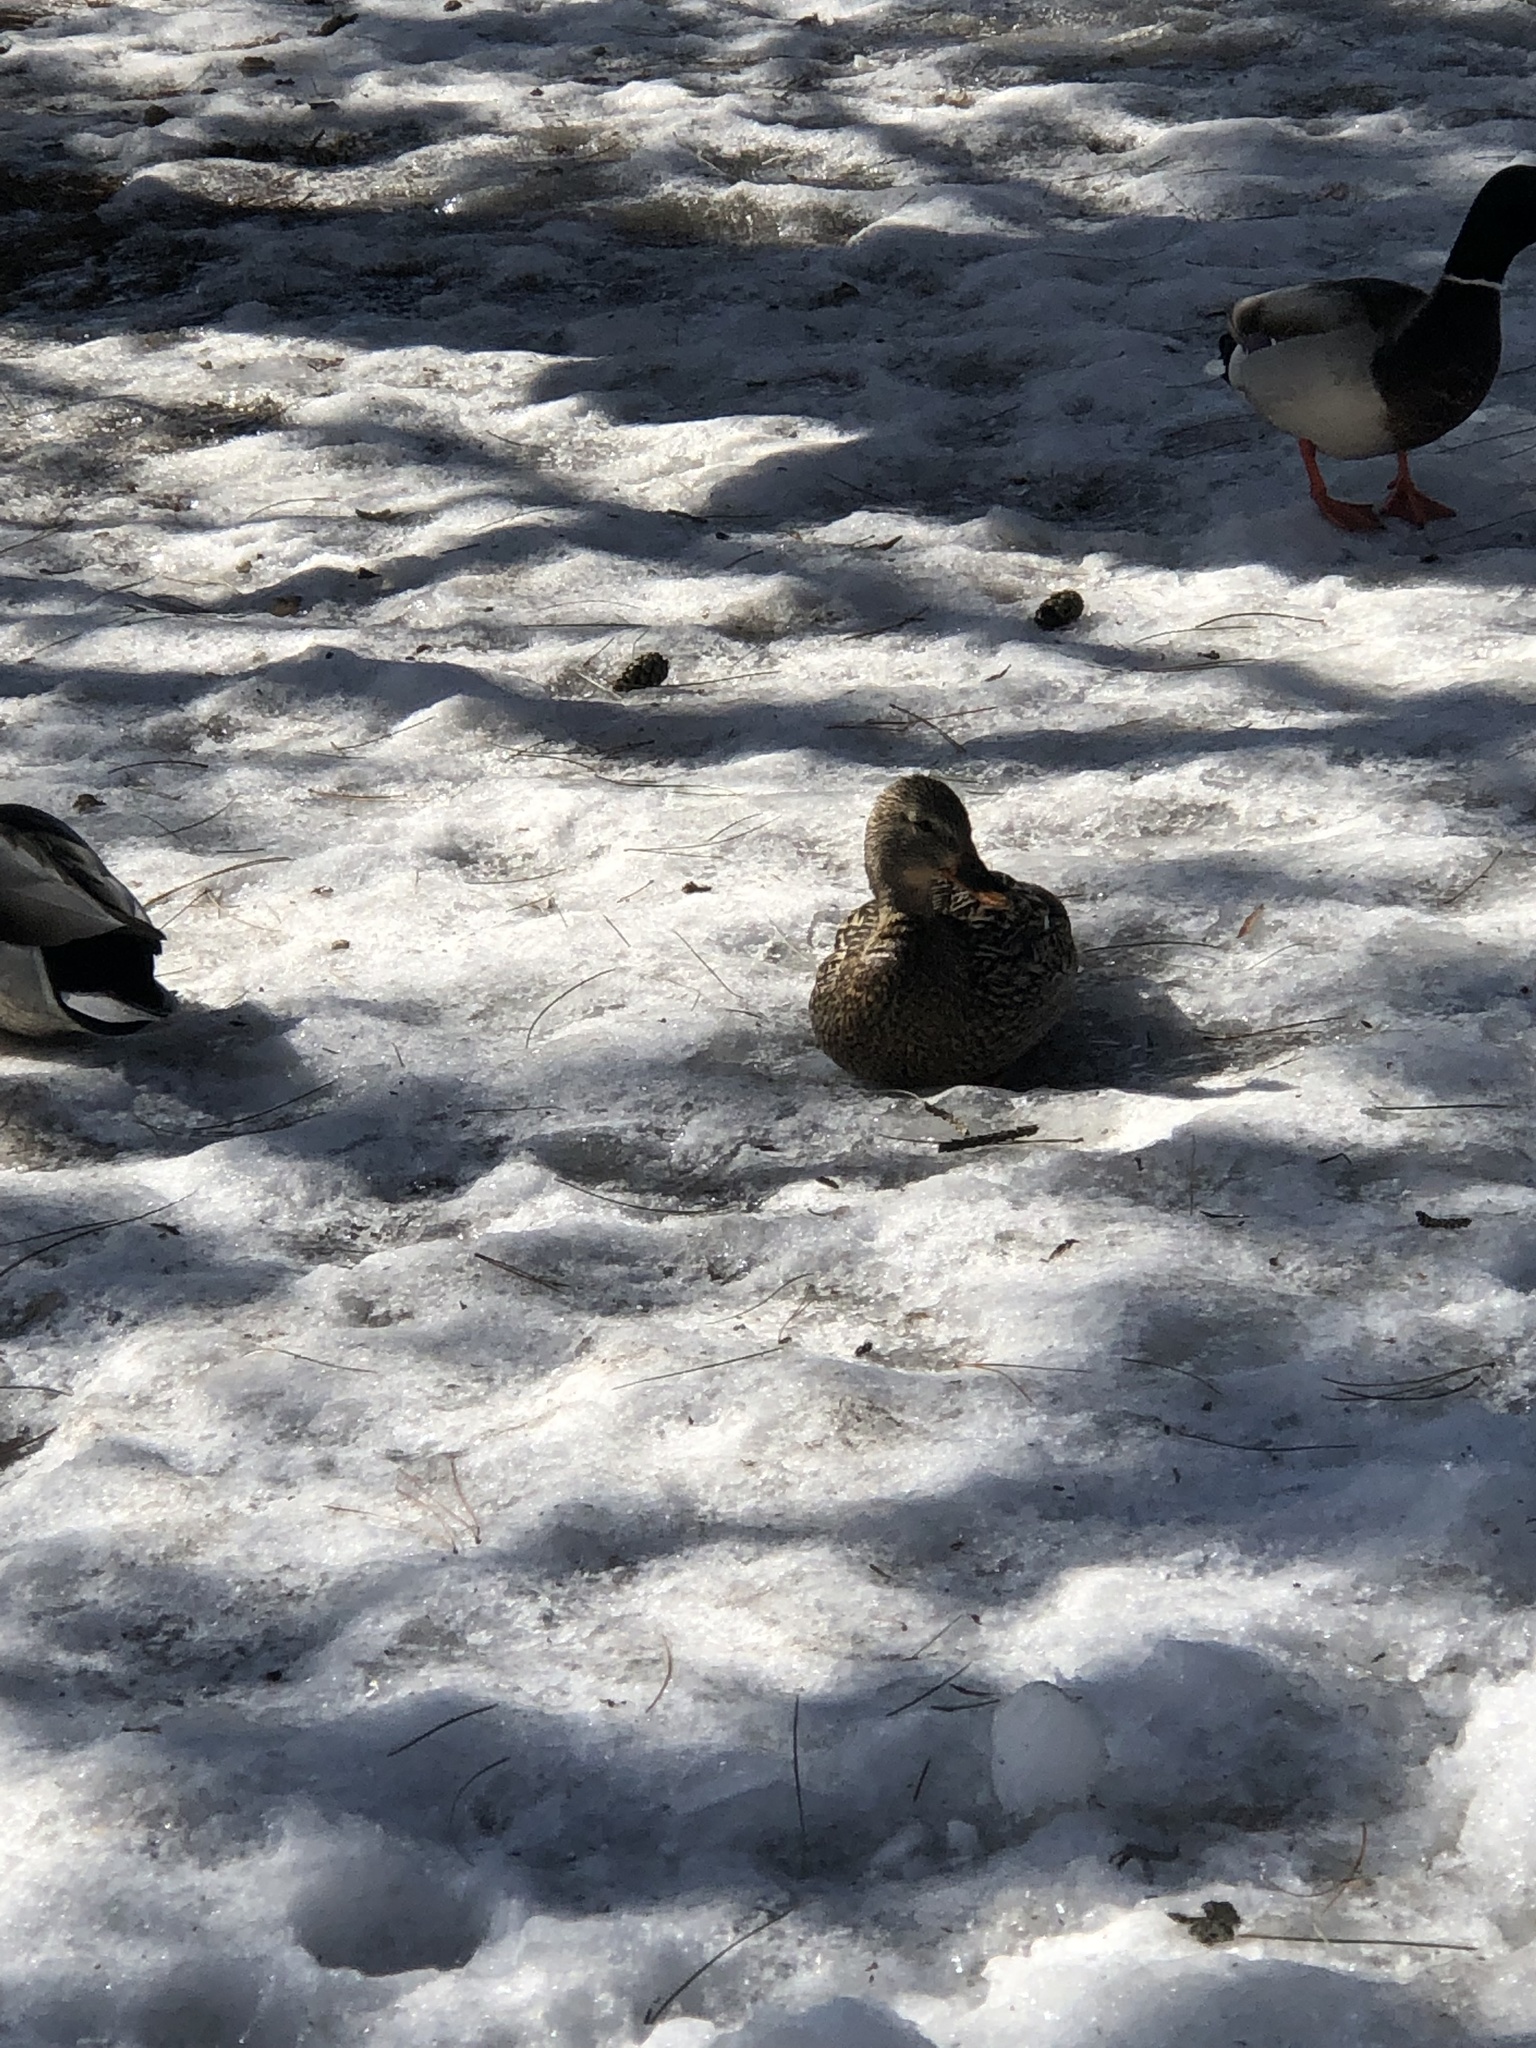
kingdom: Animalia
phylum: Chordata
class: Aves
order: Anseriformes
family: Anatidae
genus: Anas
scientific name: Anas platyrhynchos
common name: Mallard
